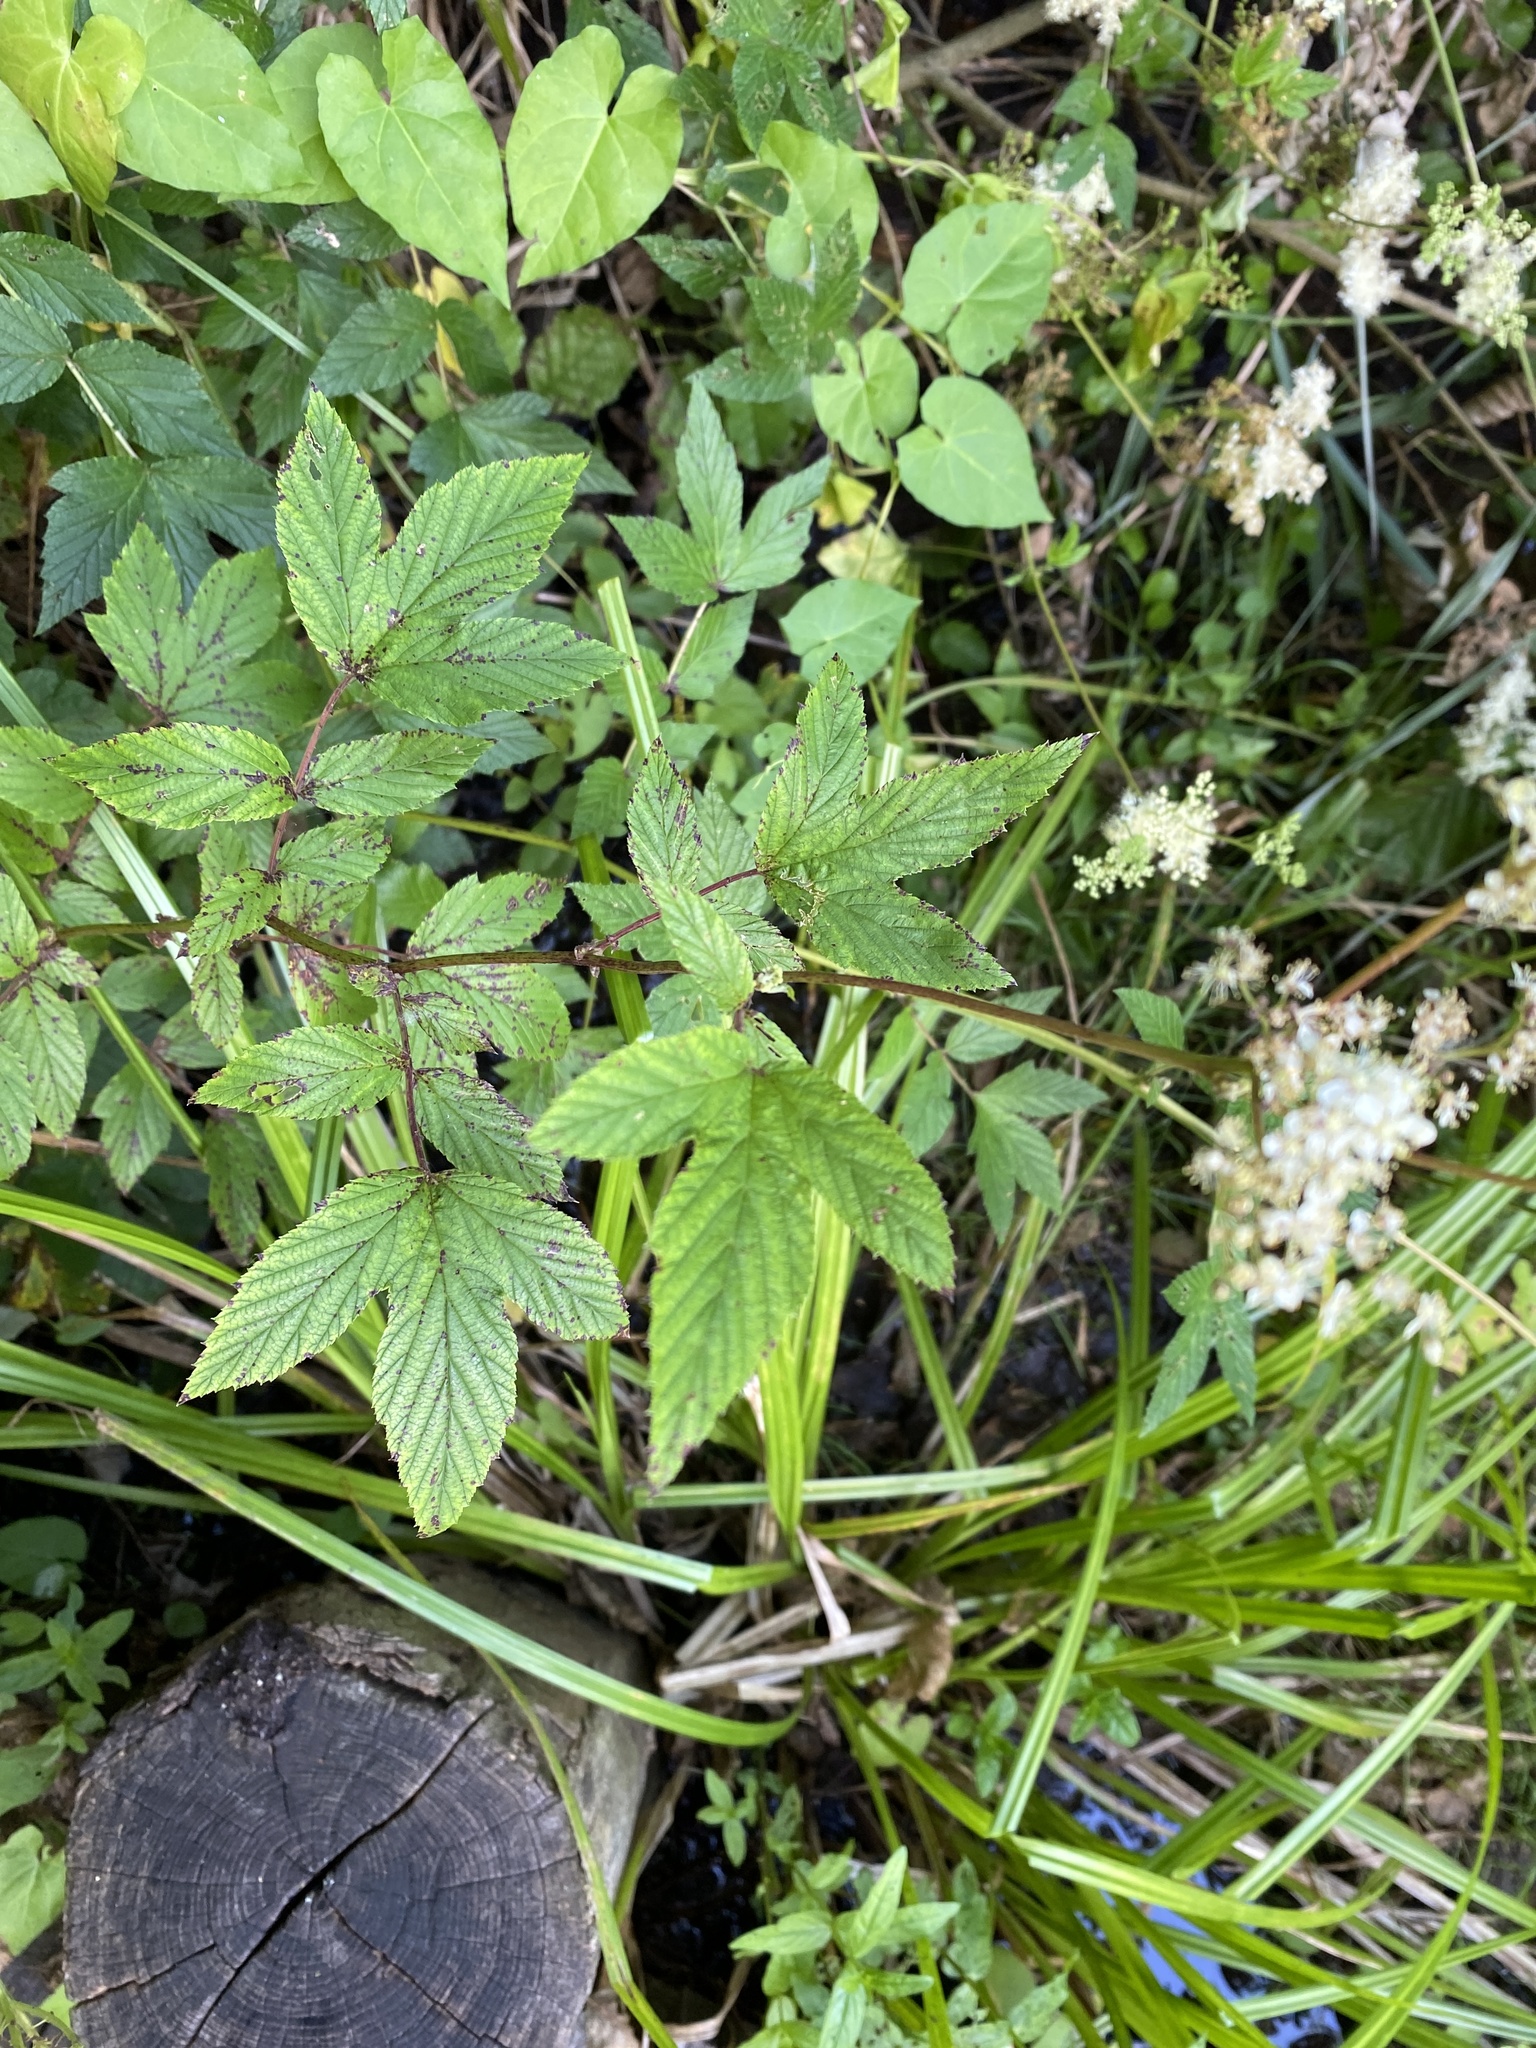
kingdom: Plantae
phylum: Tracheophyta
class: Magnoliopsida
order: Rosales
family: Rosaceae
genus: Filipendula
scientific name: Filipendula ulmaria
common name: Meadowsweet
